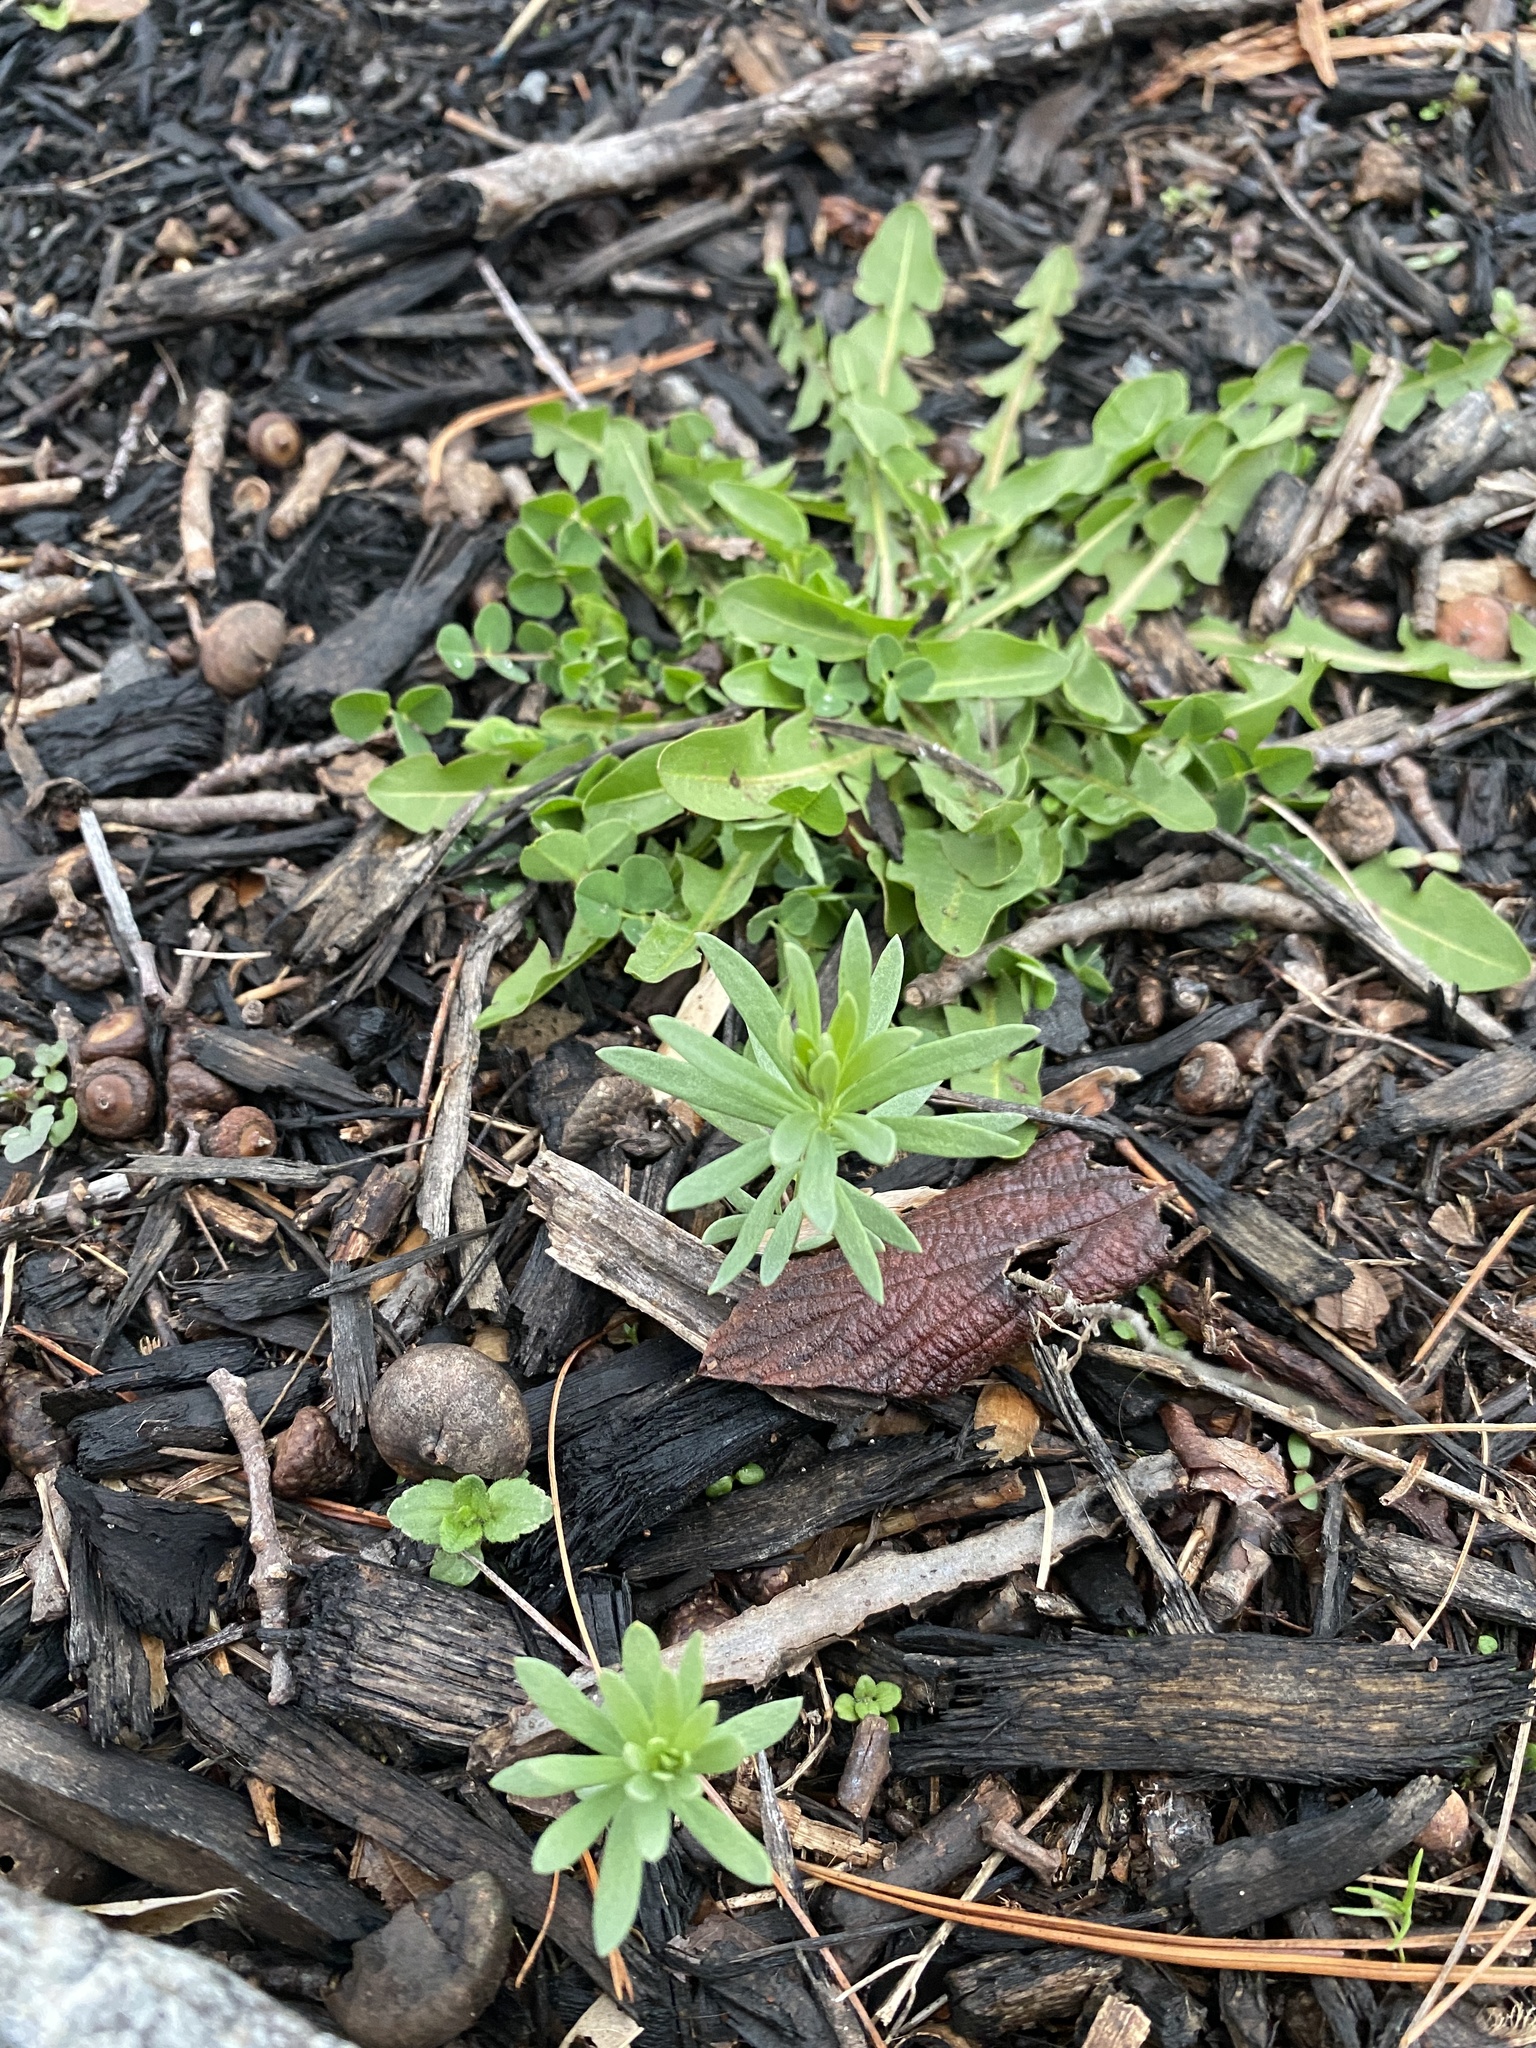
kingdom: Plantae
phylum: Tracheophyta
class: Magnoliopsida
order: Lamiales
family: Plantaginaceae
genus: Linaria
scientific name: Linaria vulgaris
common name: Butter and eggs
